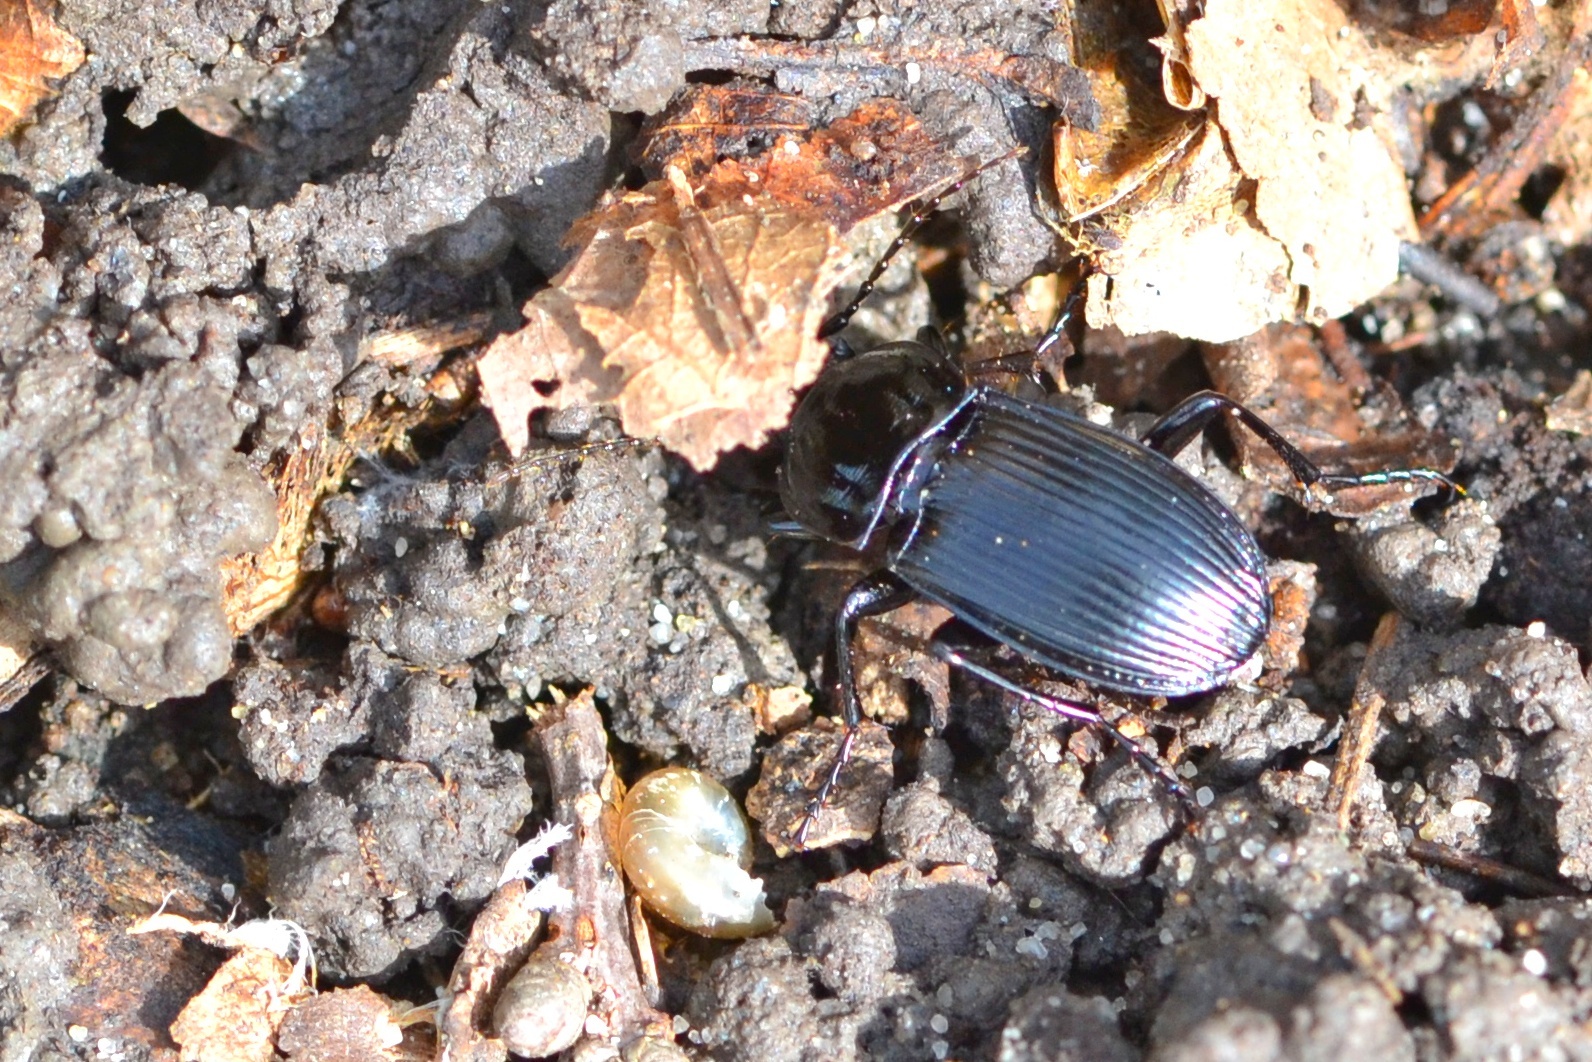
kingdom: Animalia
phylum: Arthropoda
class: Insecta
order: Coleoptera
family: Carabidae
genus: Abax
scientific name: Abax parallelepipedus
